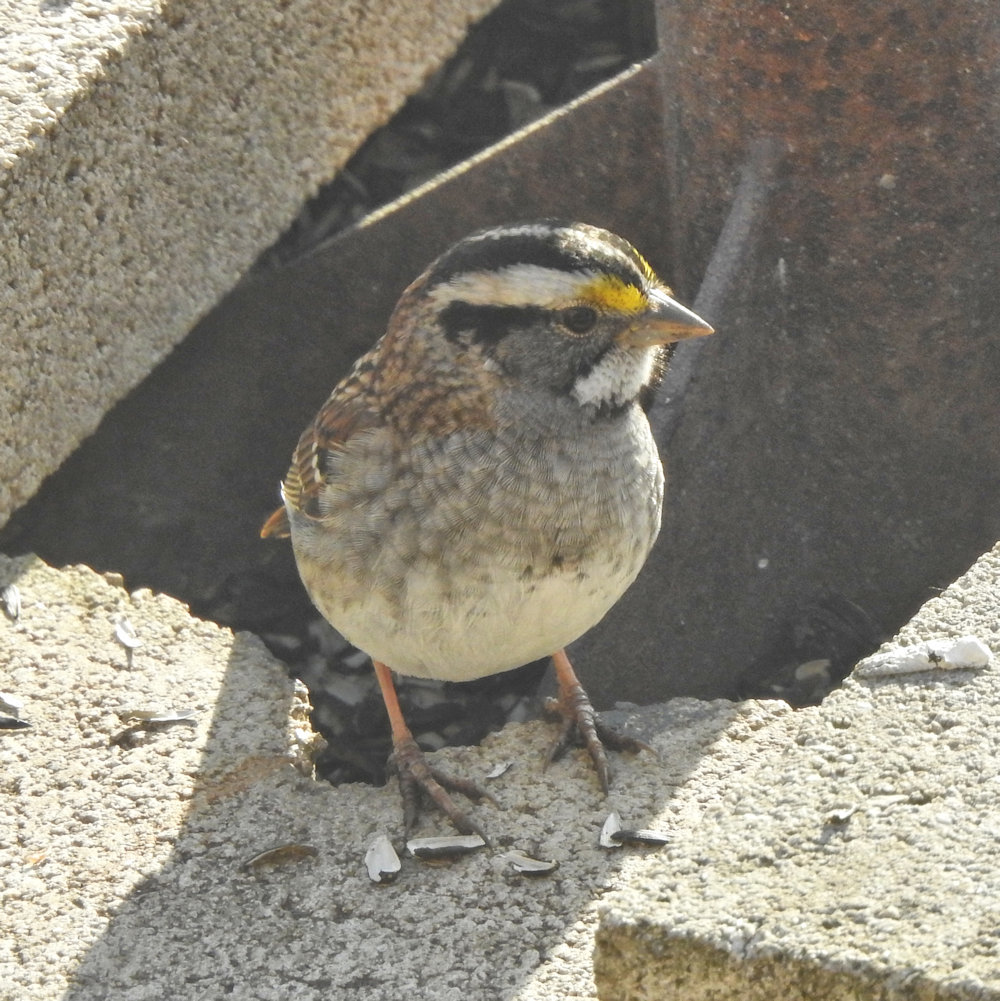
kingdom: Animalia
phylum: Chordata
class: Aves
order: Passeriformes
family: Passerellidae
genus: Zonotrichia
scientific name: Zonotrichia albicollis
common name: White-throated sparrow
